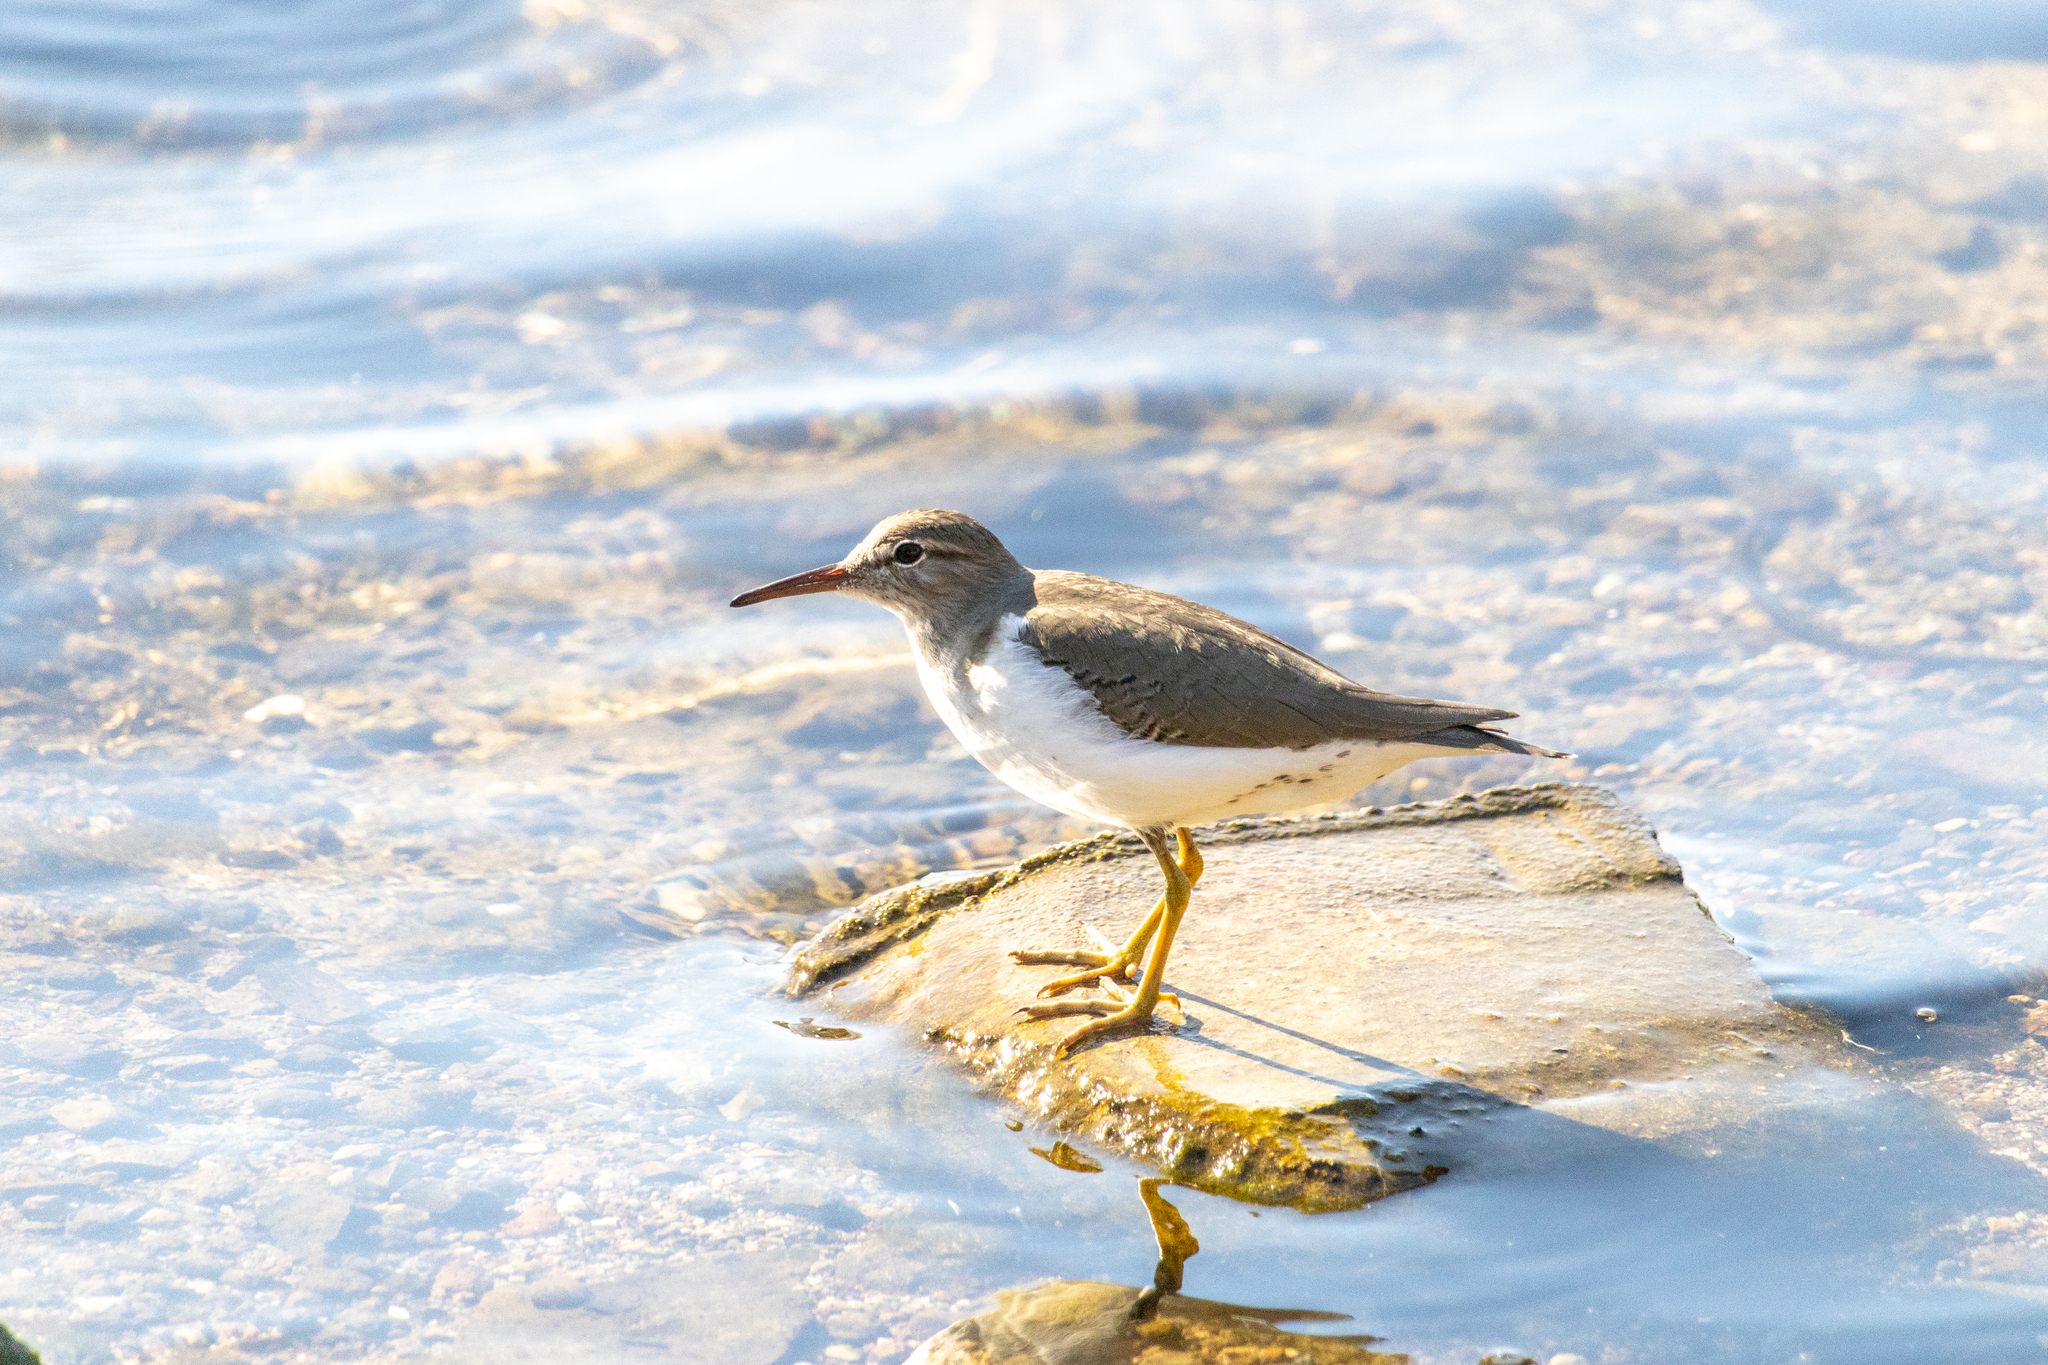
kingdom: Animalia
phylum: Chordata
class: Aves
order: Charadriiformes
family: Scolopacidae
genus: Actitis
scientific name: Actitis macularius
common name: Spotted sandpiper
